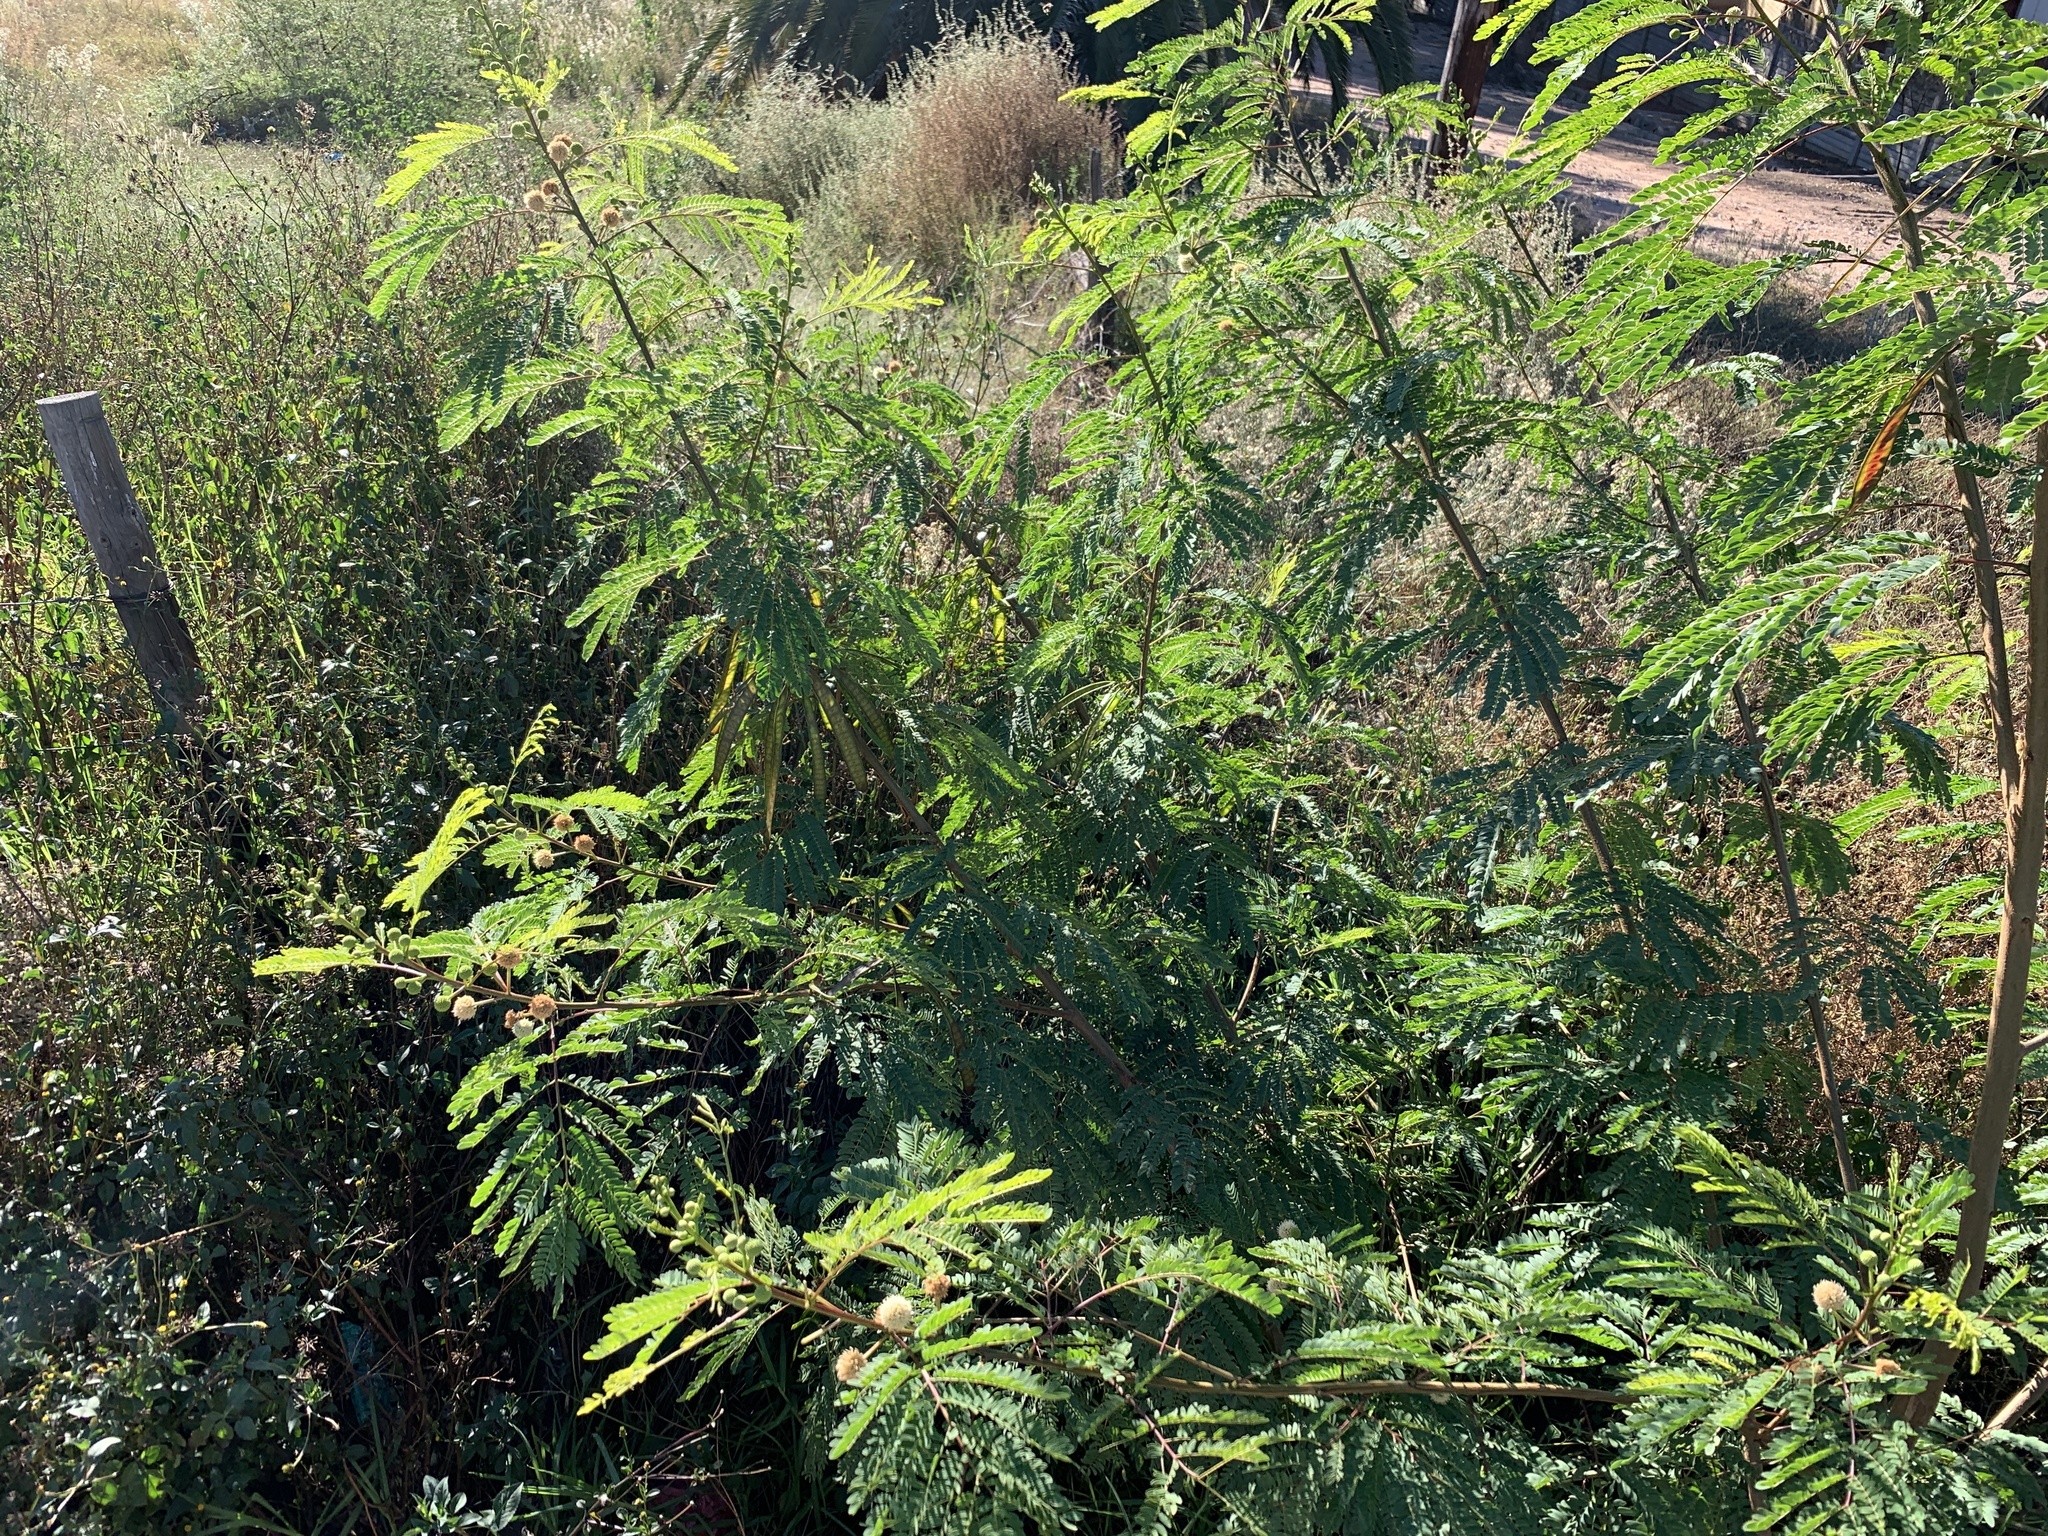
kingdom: Plantae
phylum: Tracheophyta
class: Magnoliopsida
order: Fabales
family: Fabaceae
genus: Leucaena
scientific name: Leucaena leucocephala
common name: White leadtree
